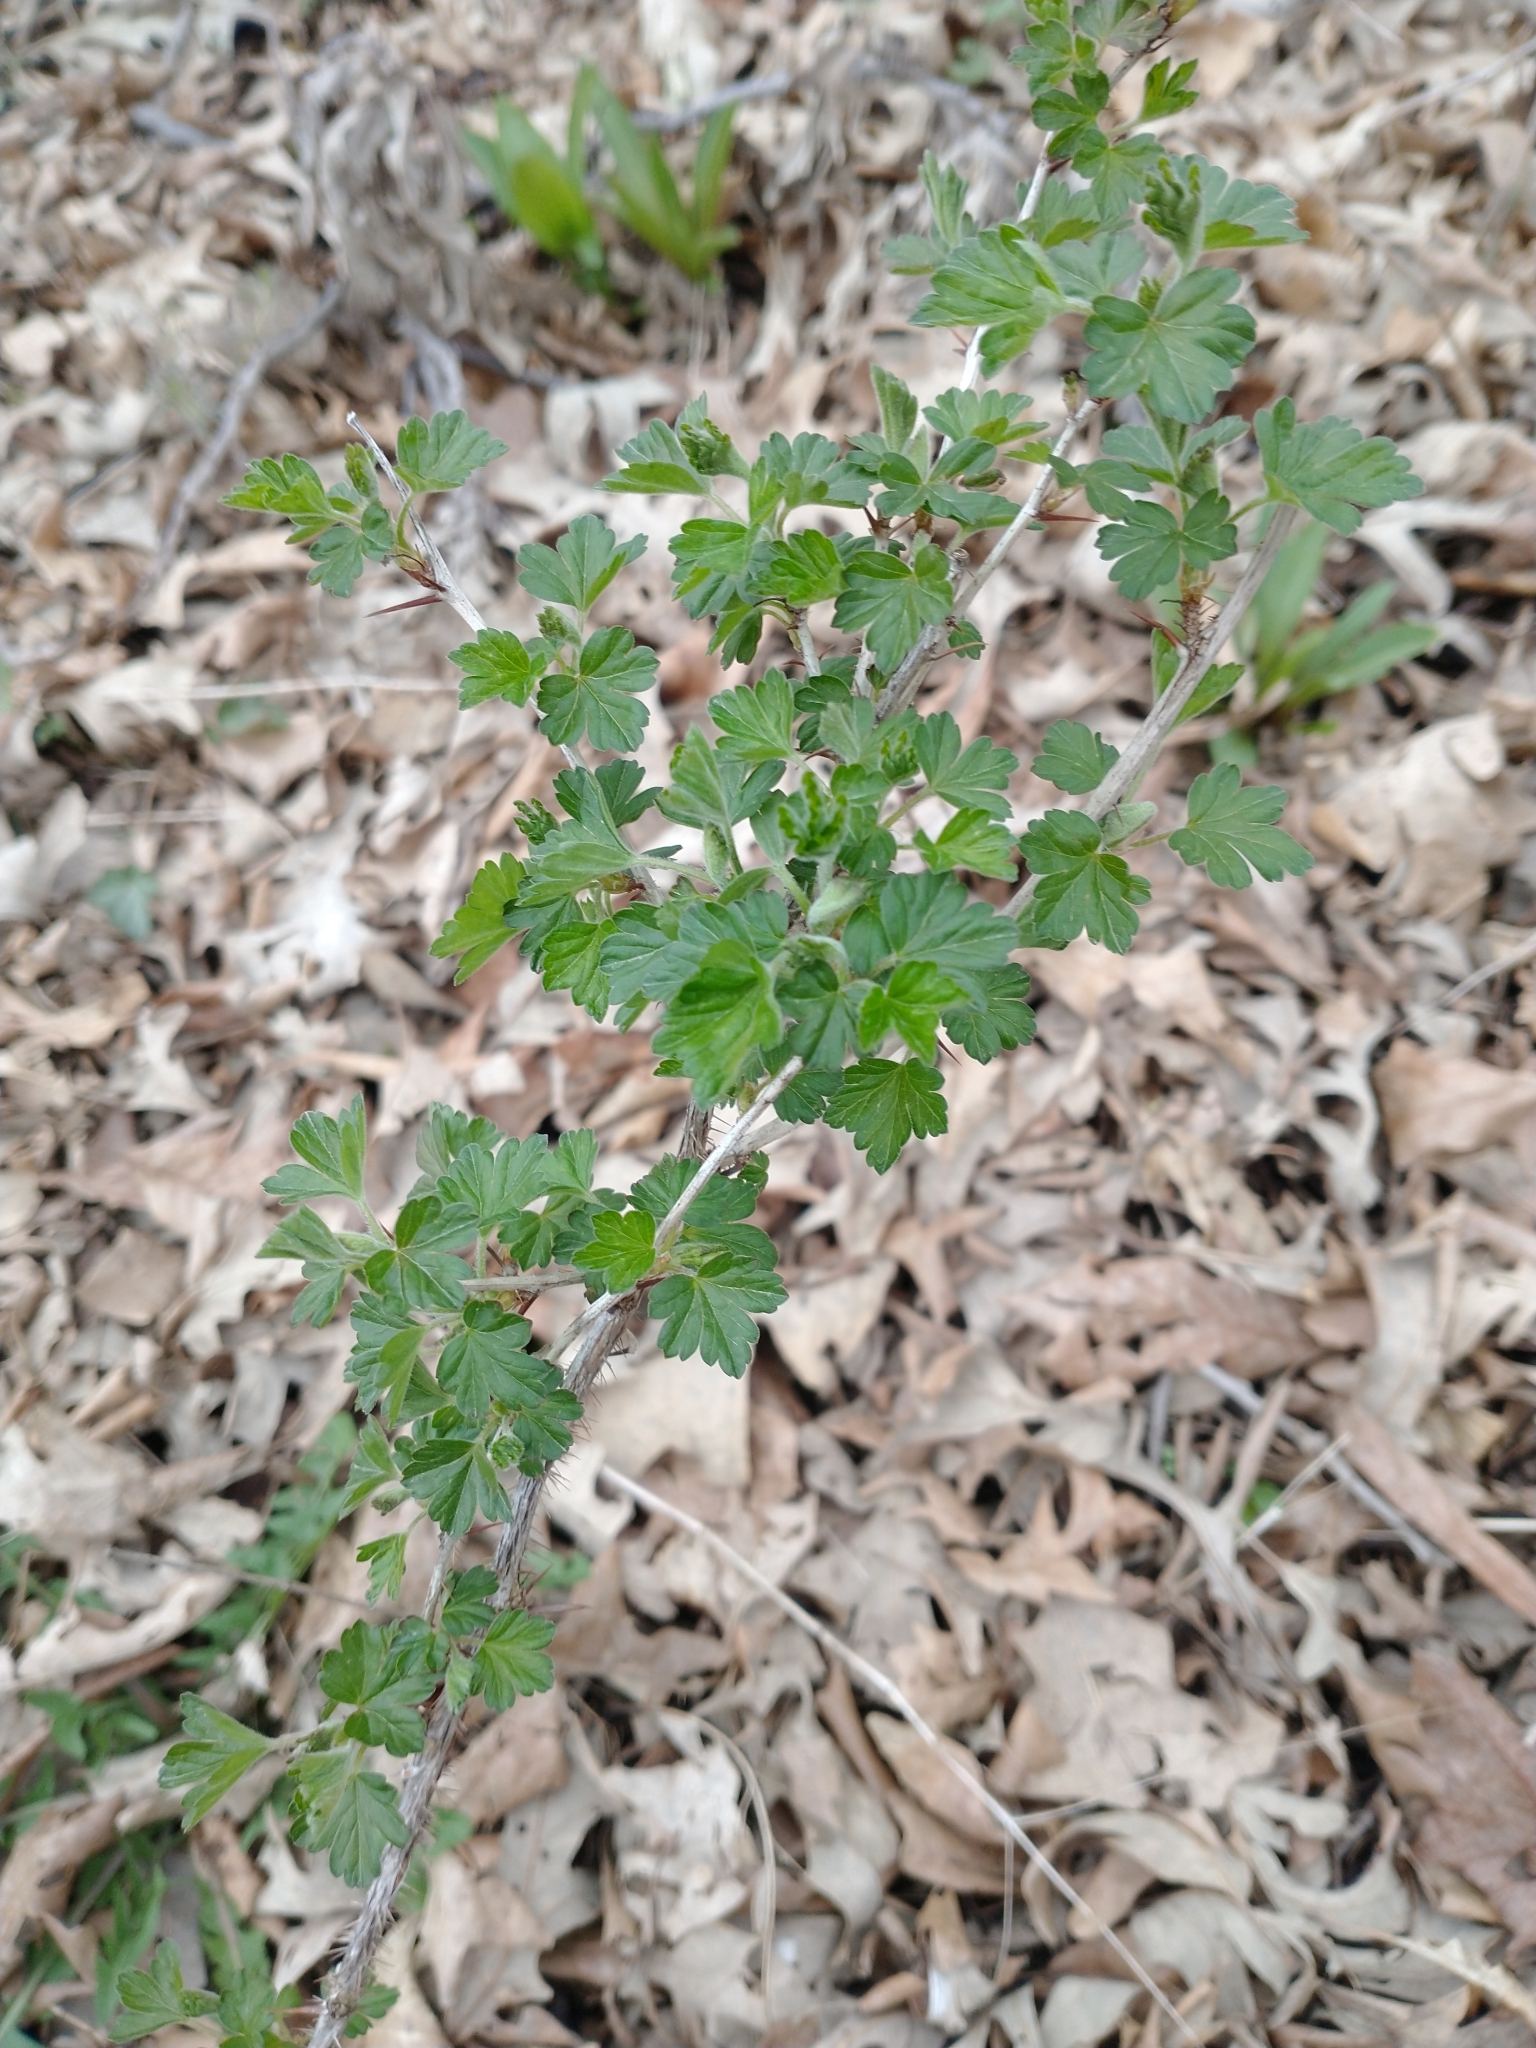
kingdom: Plantae
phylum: Tracheophyta
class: Magnoliopsida
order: Saxifragales
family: Grossulariaceae
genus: Ribes
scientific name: Ribes missouriense
